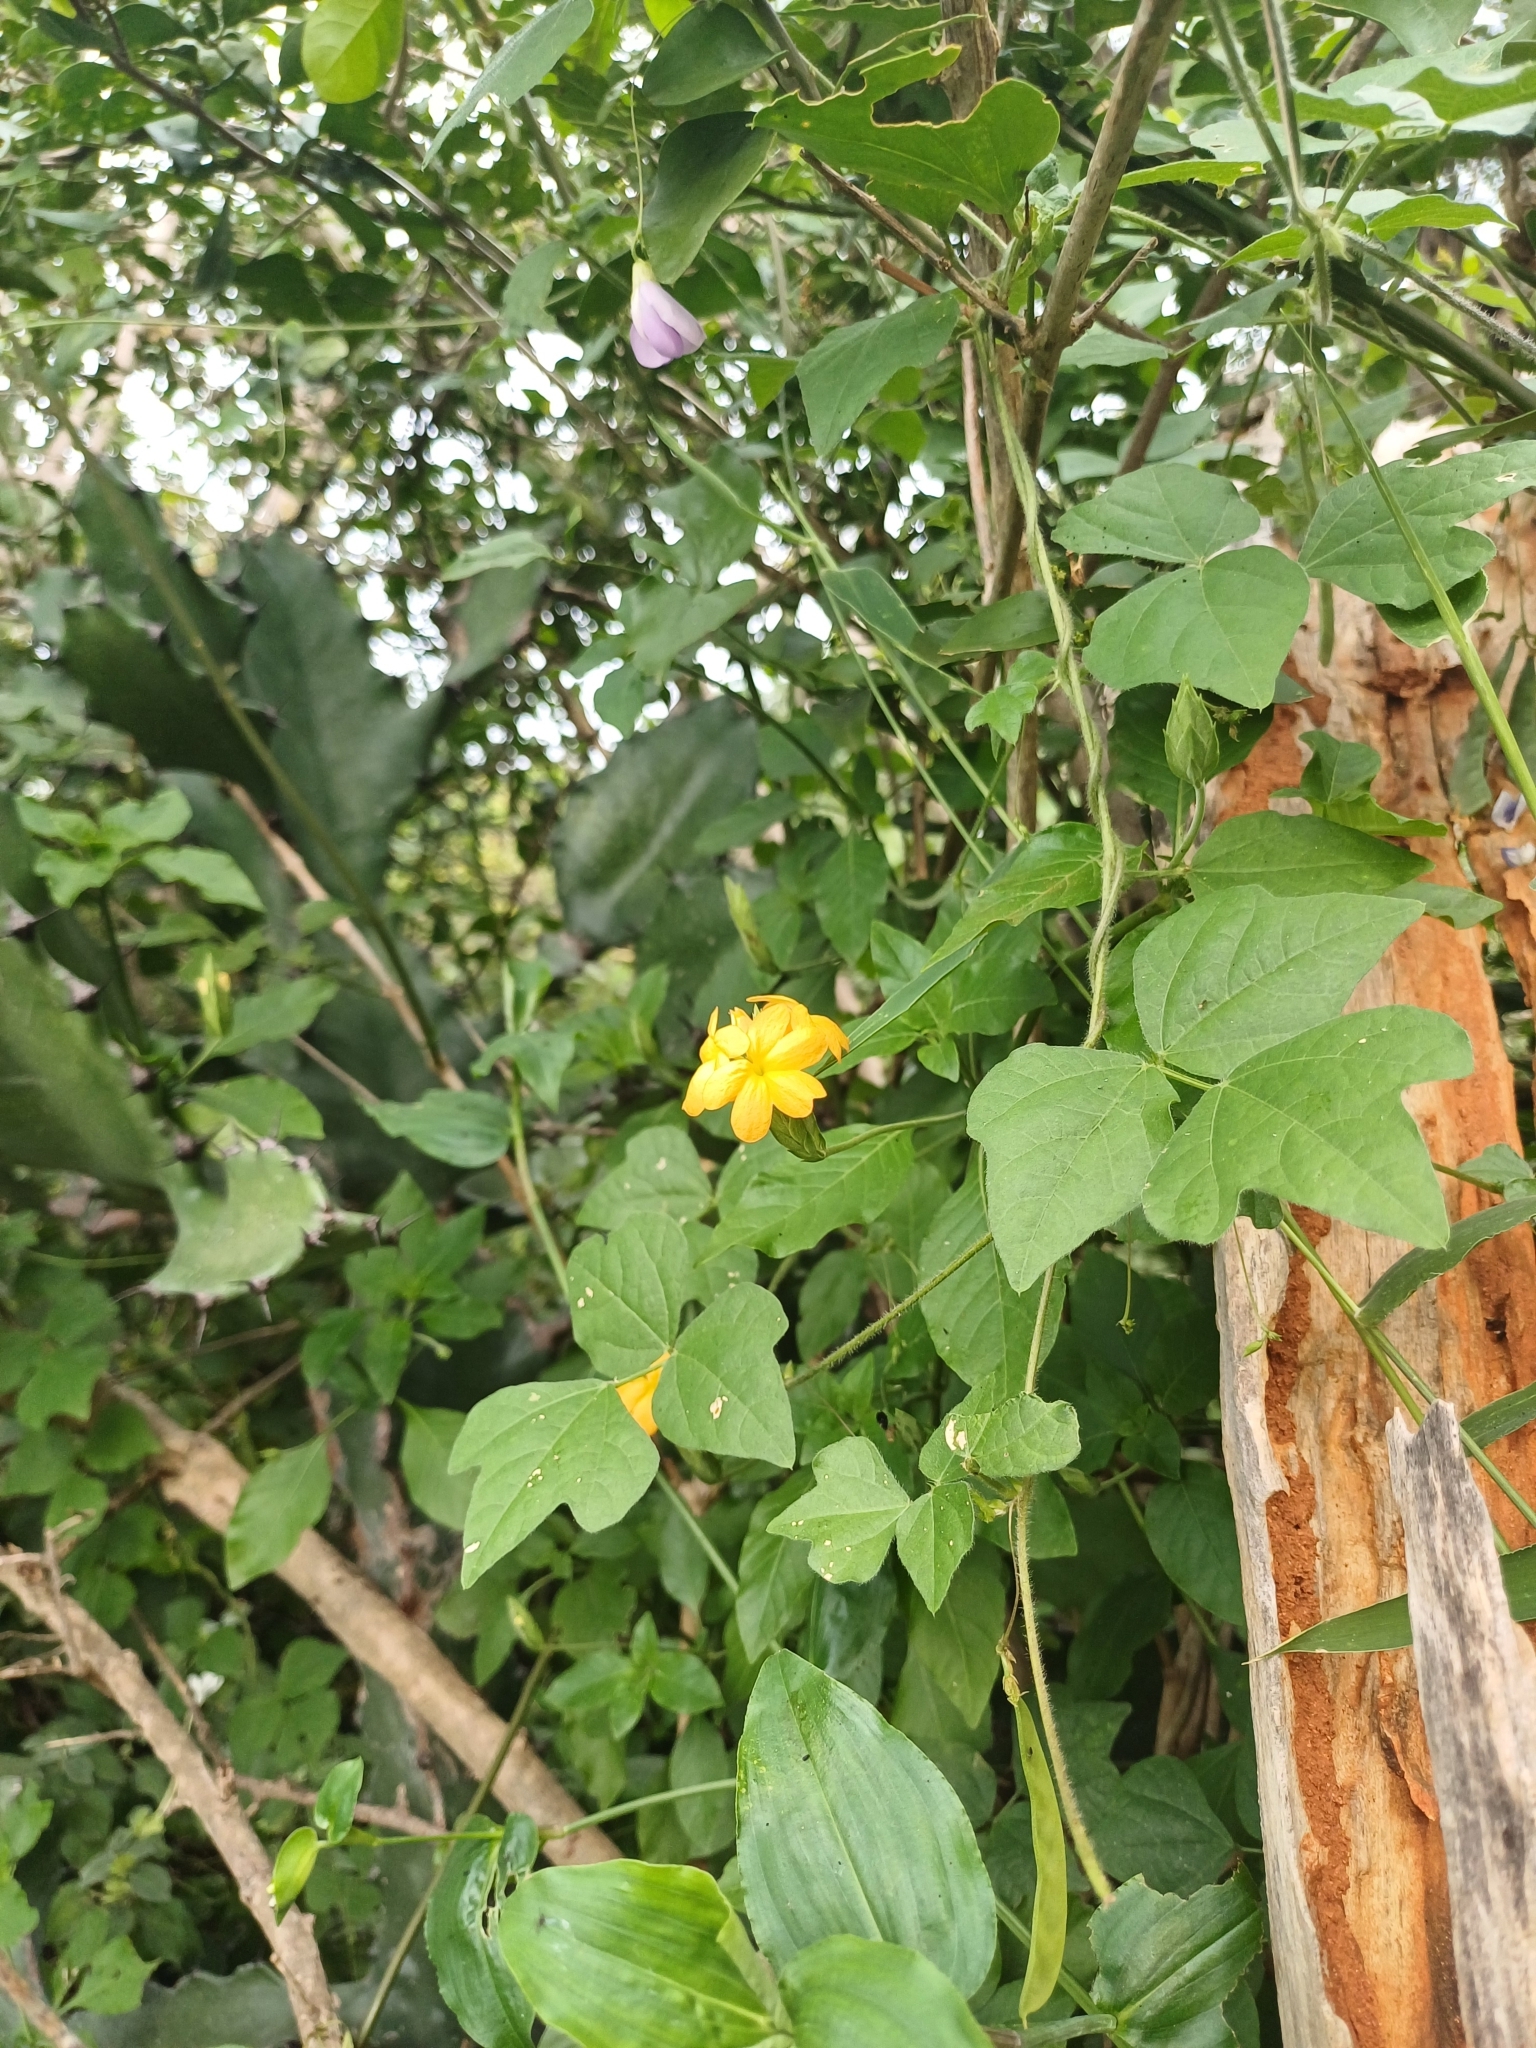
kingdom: Plantae
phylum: Tracheophyta
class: Magnoliopsida
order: Lamiales
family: Acanthaceae
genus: Crossandra
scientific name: Crossandra infundibuliformis
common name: Firecracker-flower
